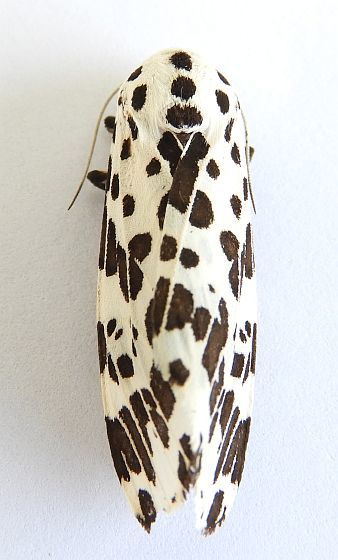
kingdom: Animalia
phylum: Arthropoda
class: Insecta
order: Lepidoptera
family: Erebidae
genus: Hypercompe
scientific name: Hypercompe permaculata
